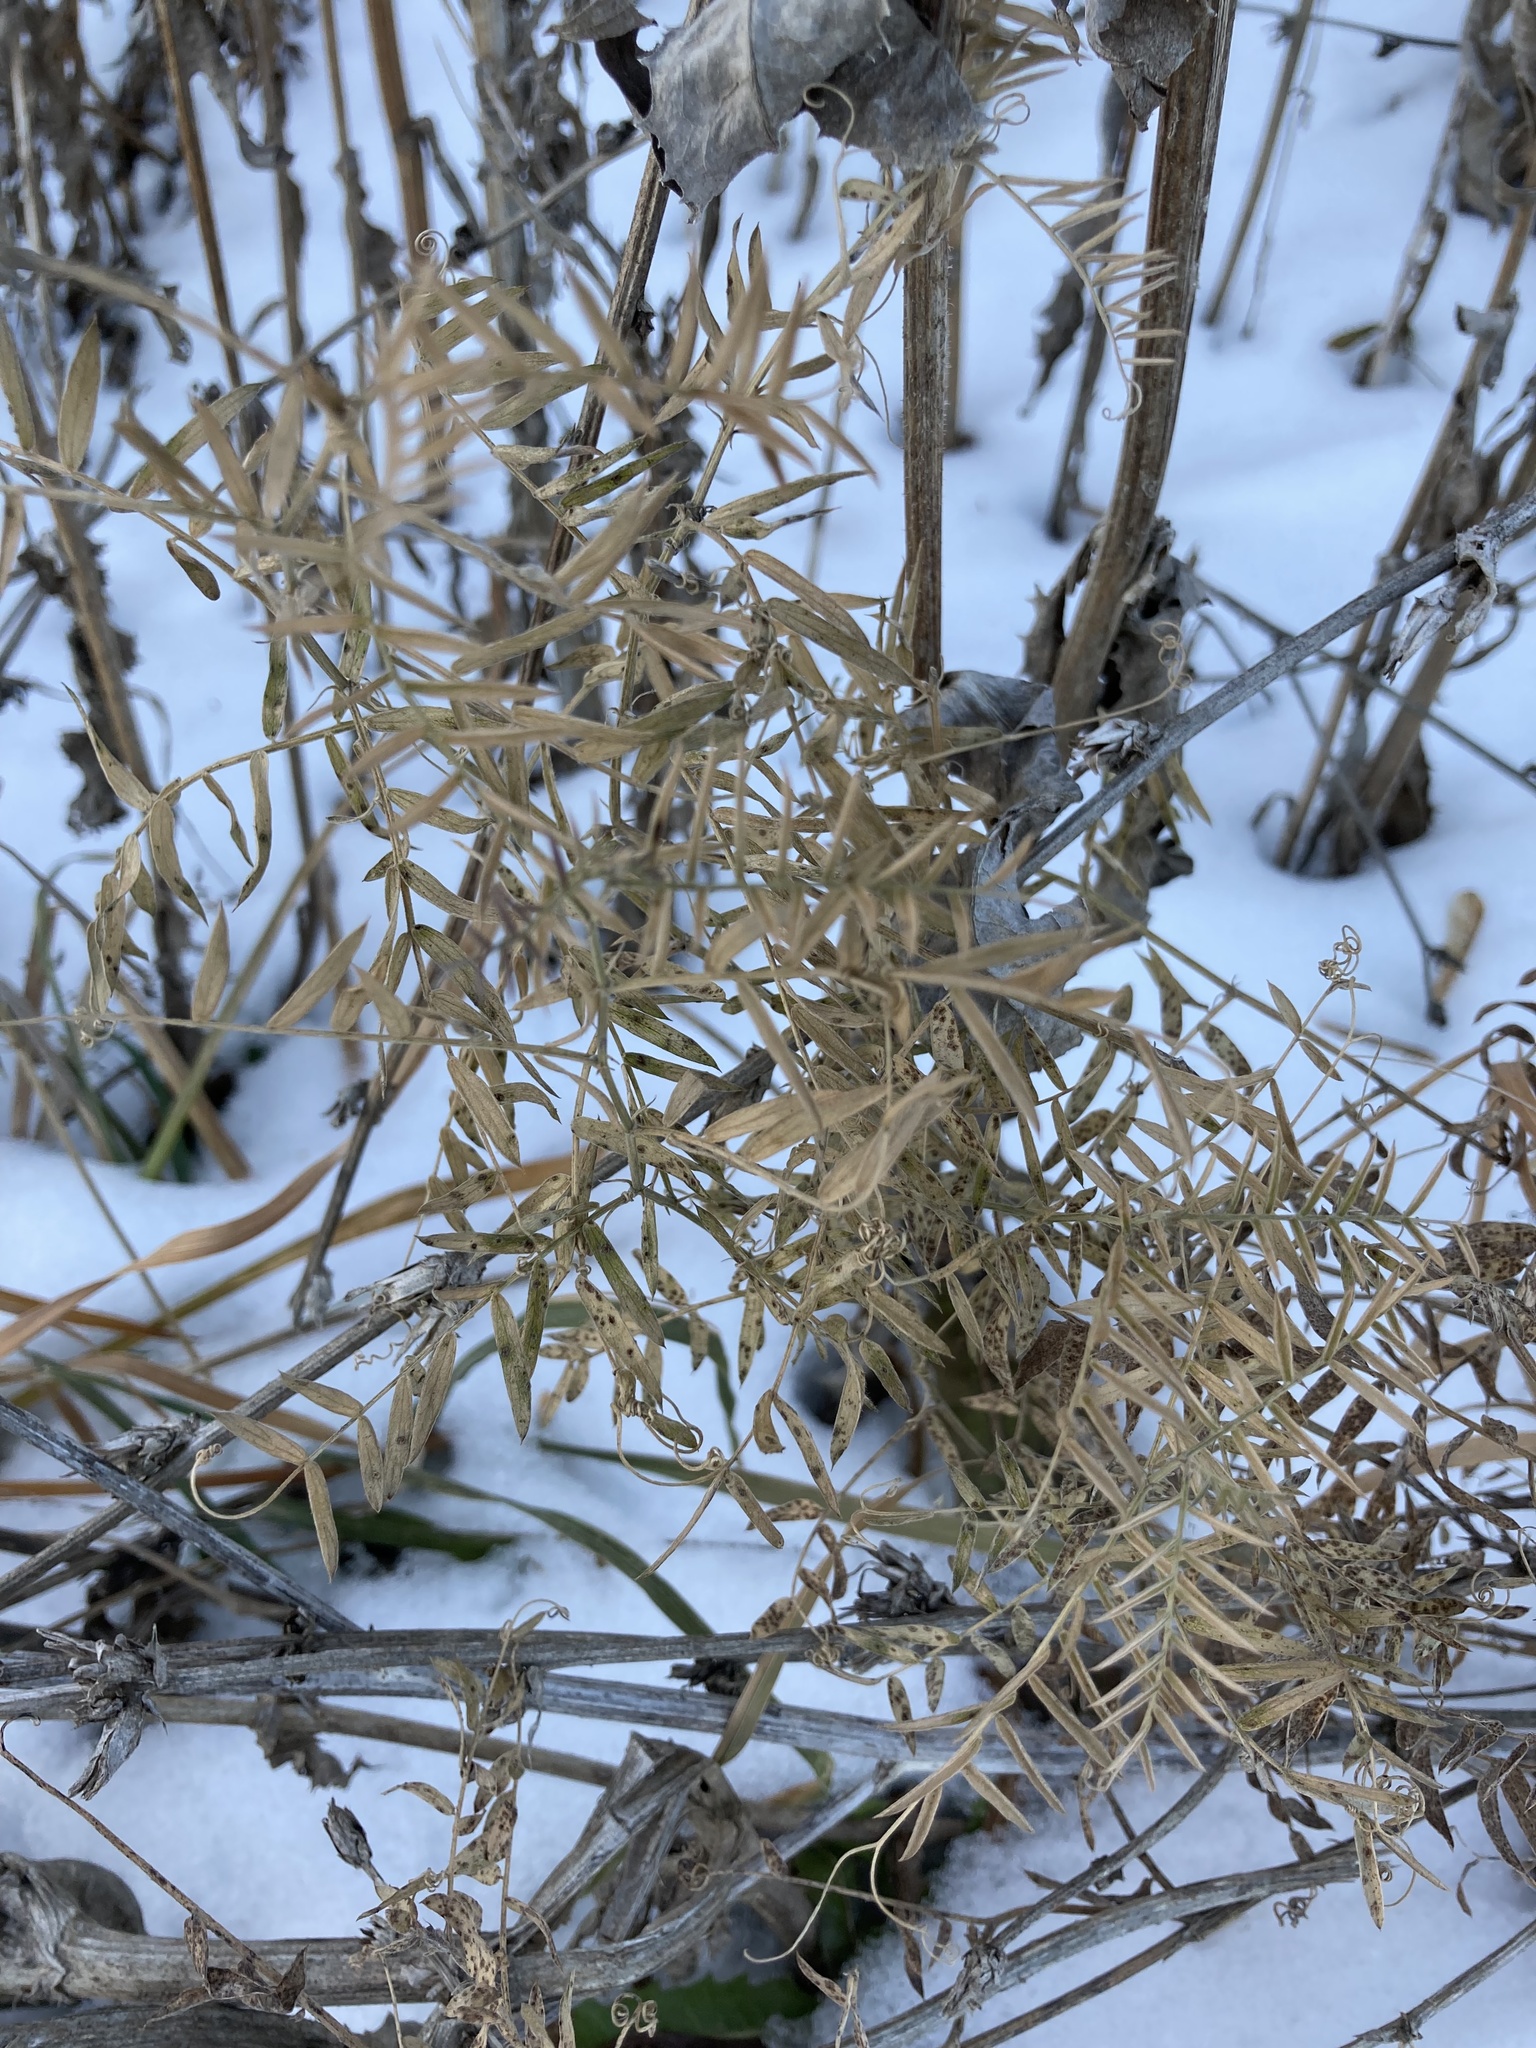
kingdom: Plantae
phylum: Tracheophyta
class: Magnoliopsida
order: Fabales
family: Fabaceae
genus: Vicia
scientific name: Vicia cracca
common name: Bird vetch
